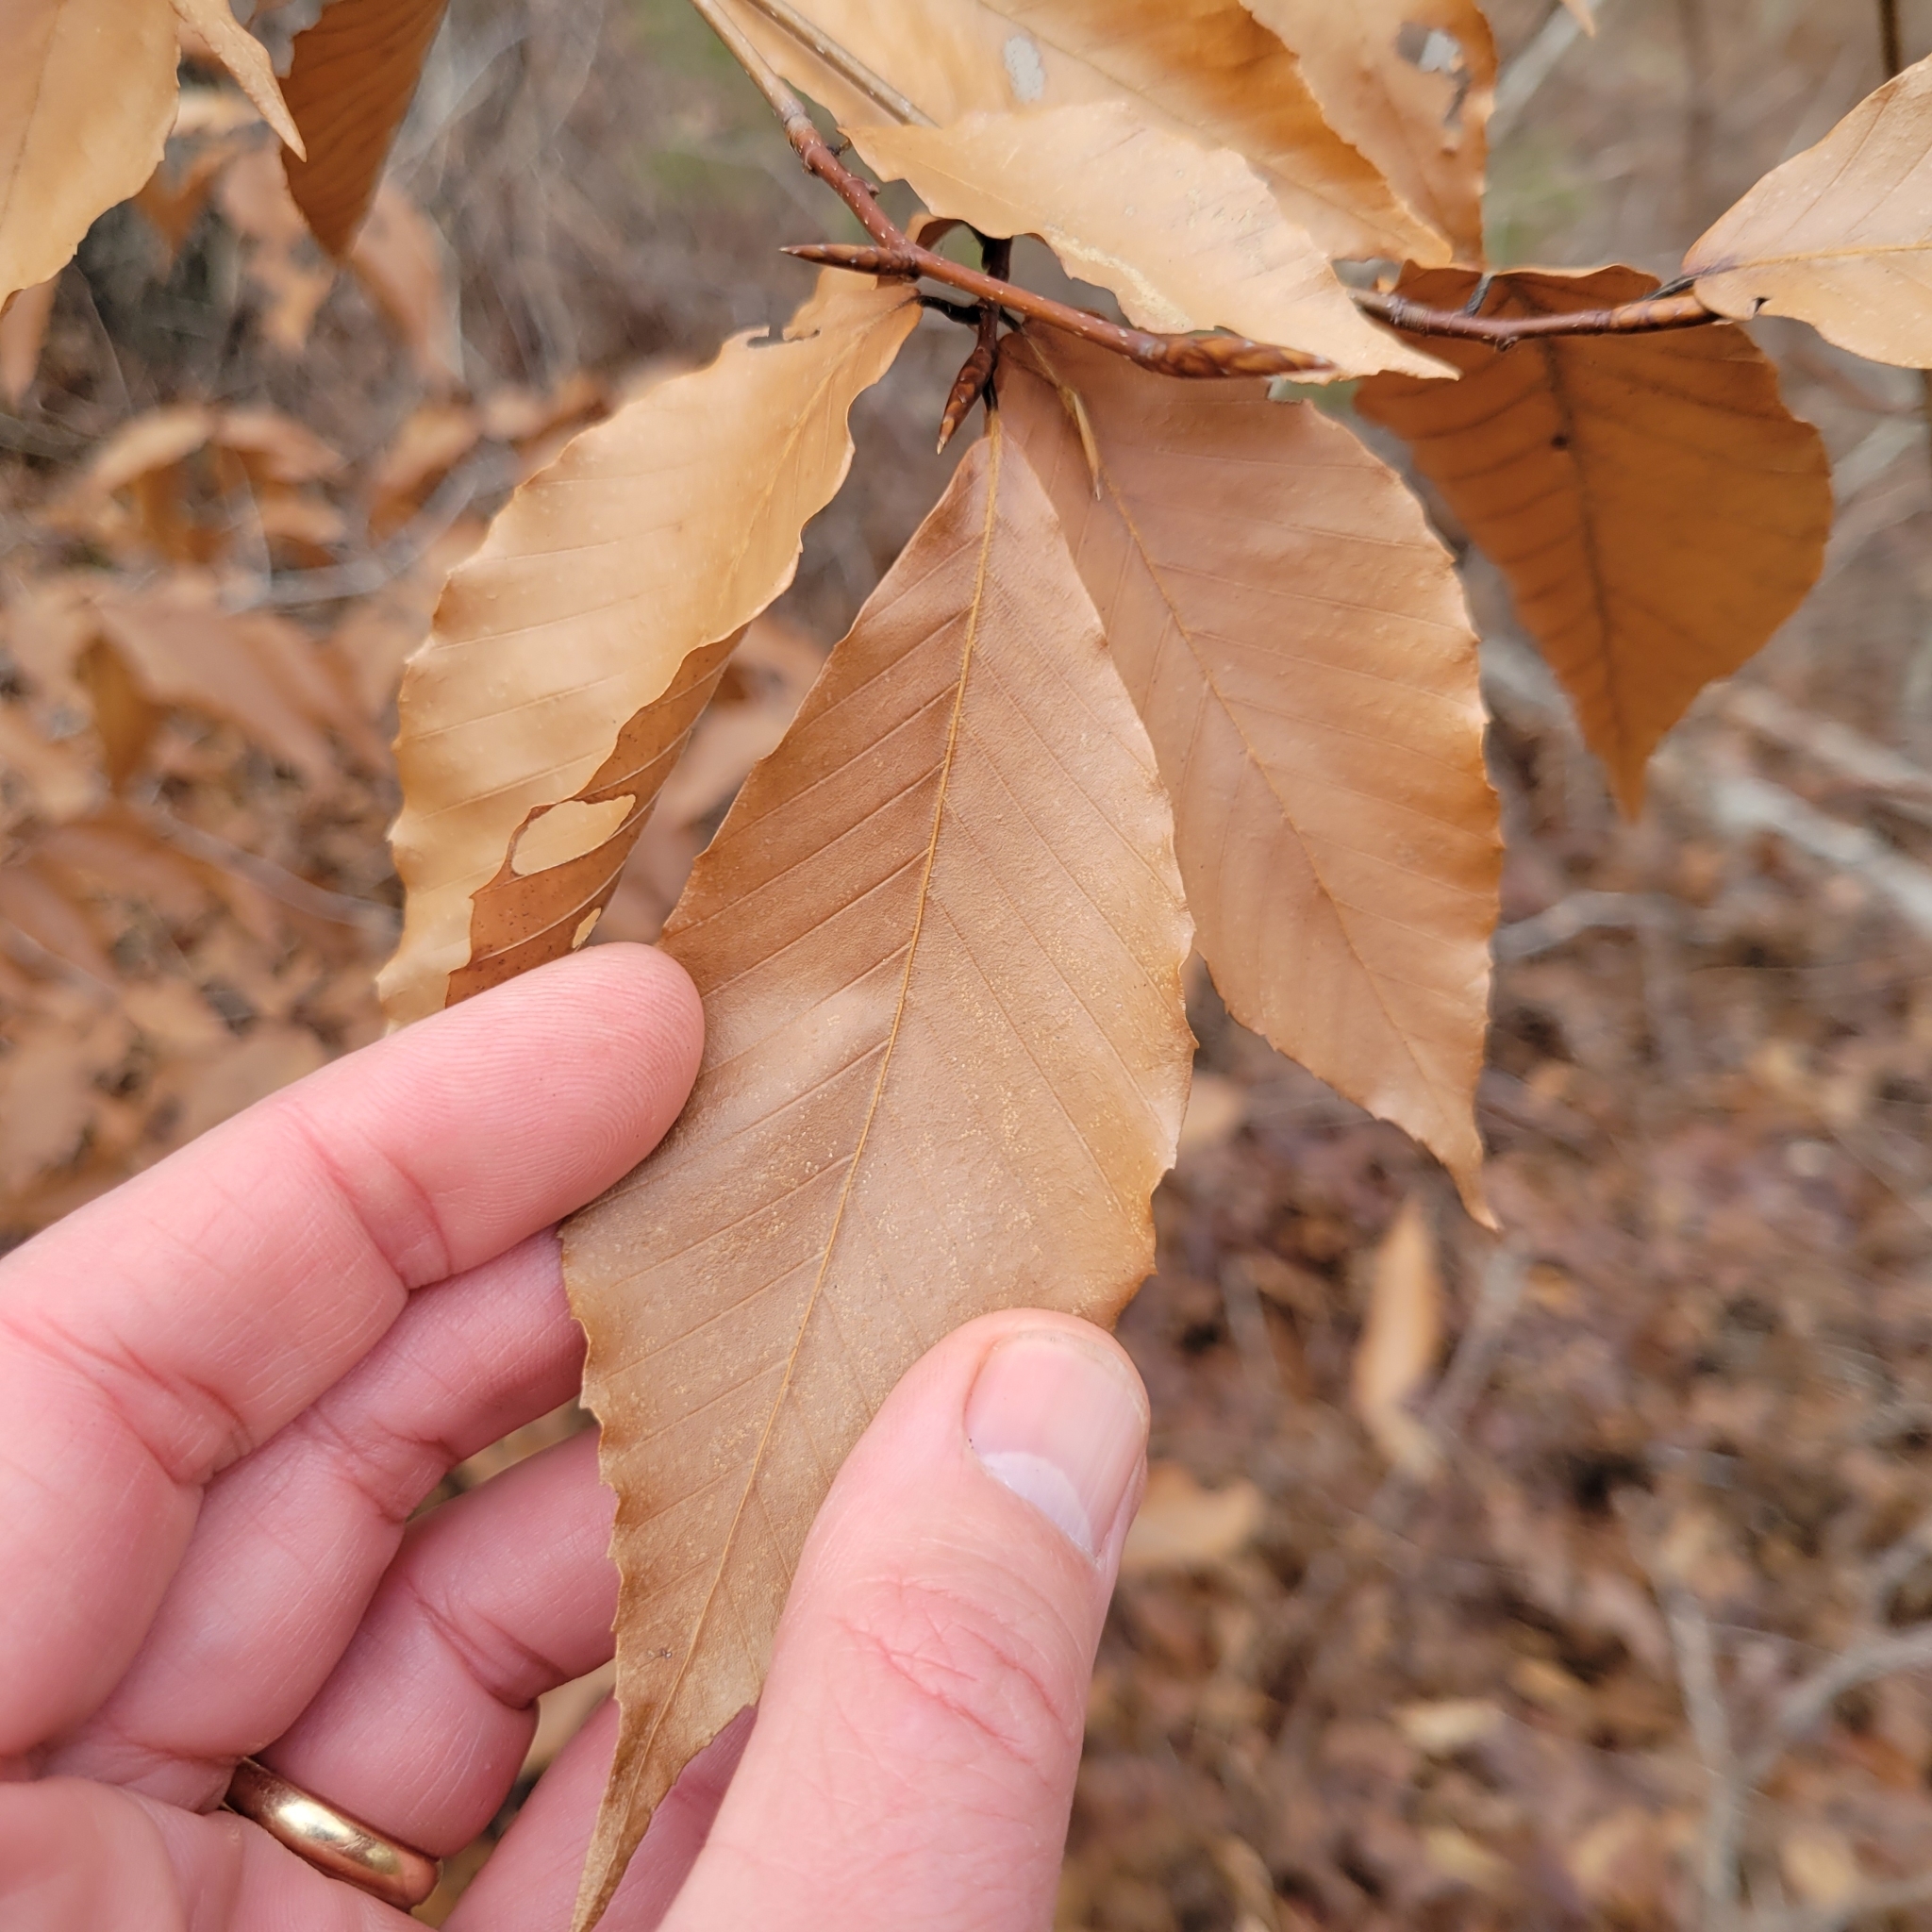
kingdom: Plantae
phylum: Tracheophyta
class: Magnoliopsida
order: Fagales
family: Fagaceae
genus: Fagus
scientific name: Fagus grandifolia
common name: American beech
